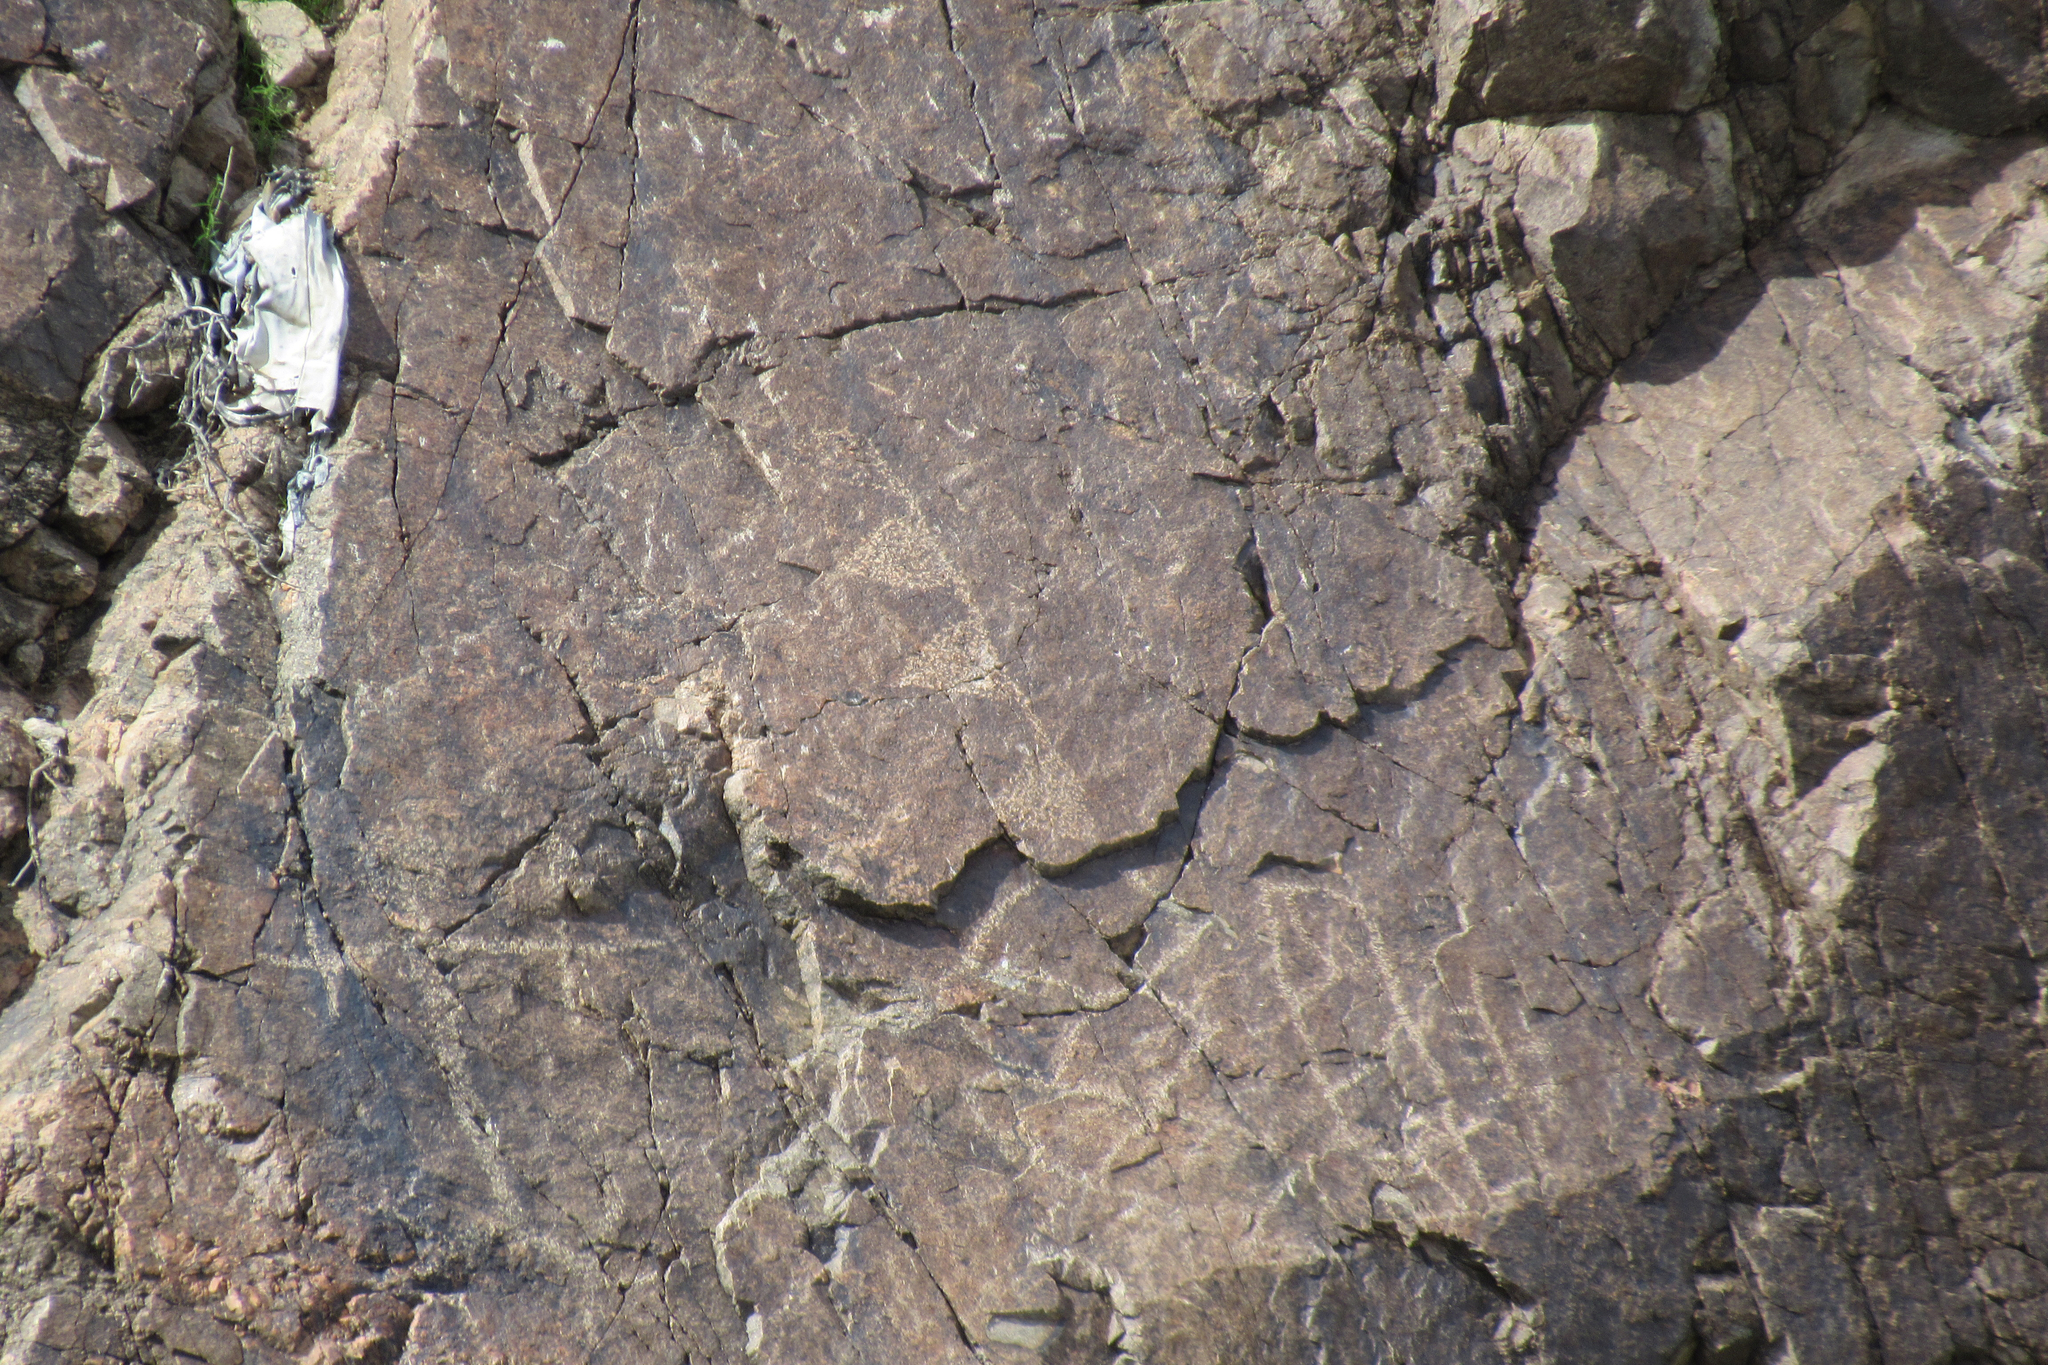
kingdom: Plantae
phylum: Tracheophyta
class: Magnoliopsida
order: Asterales
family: Asteraceae
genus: Encelia
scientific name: Encelia farinosa
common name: Brittlebush
